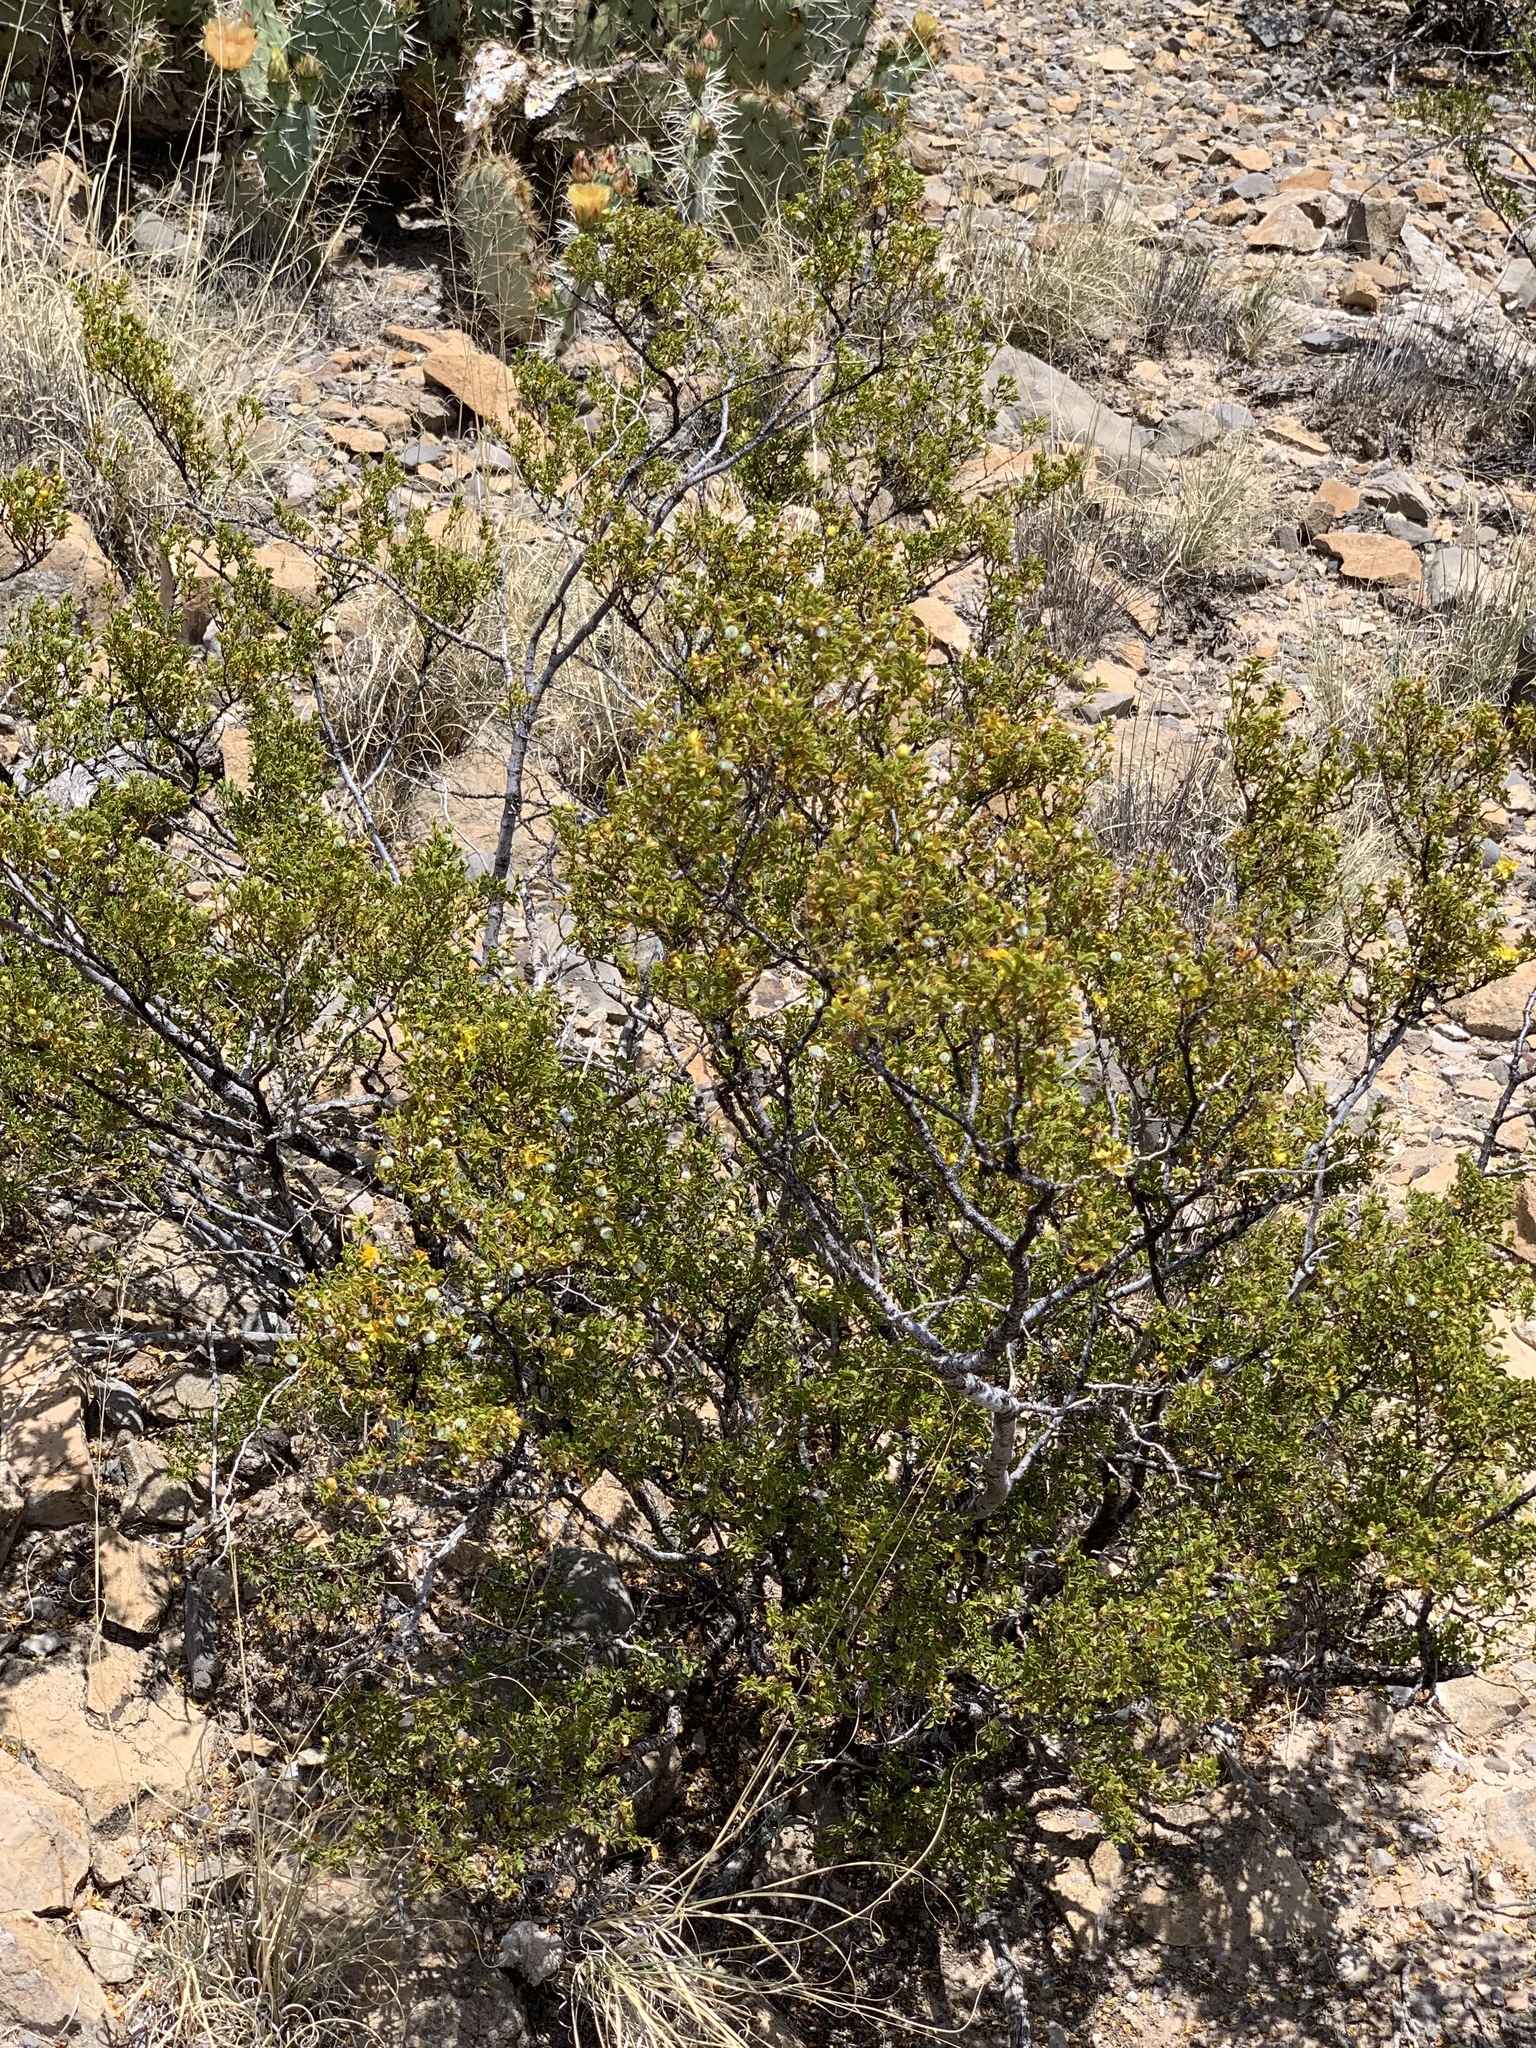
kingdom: Plantae
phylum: Tracheophyta
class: Magnoliopsida
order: Zygophyllales
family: Zygophyllaceae
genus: Larrea
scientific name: Larrea tridentata
